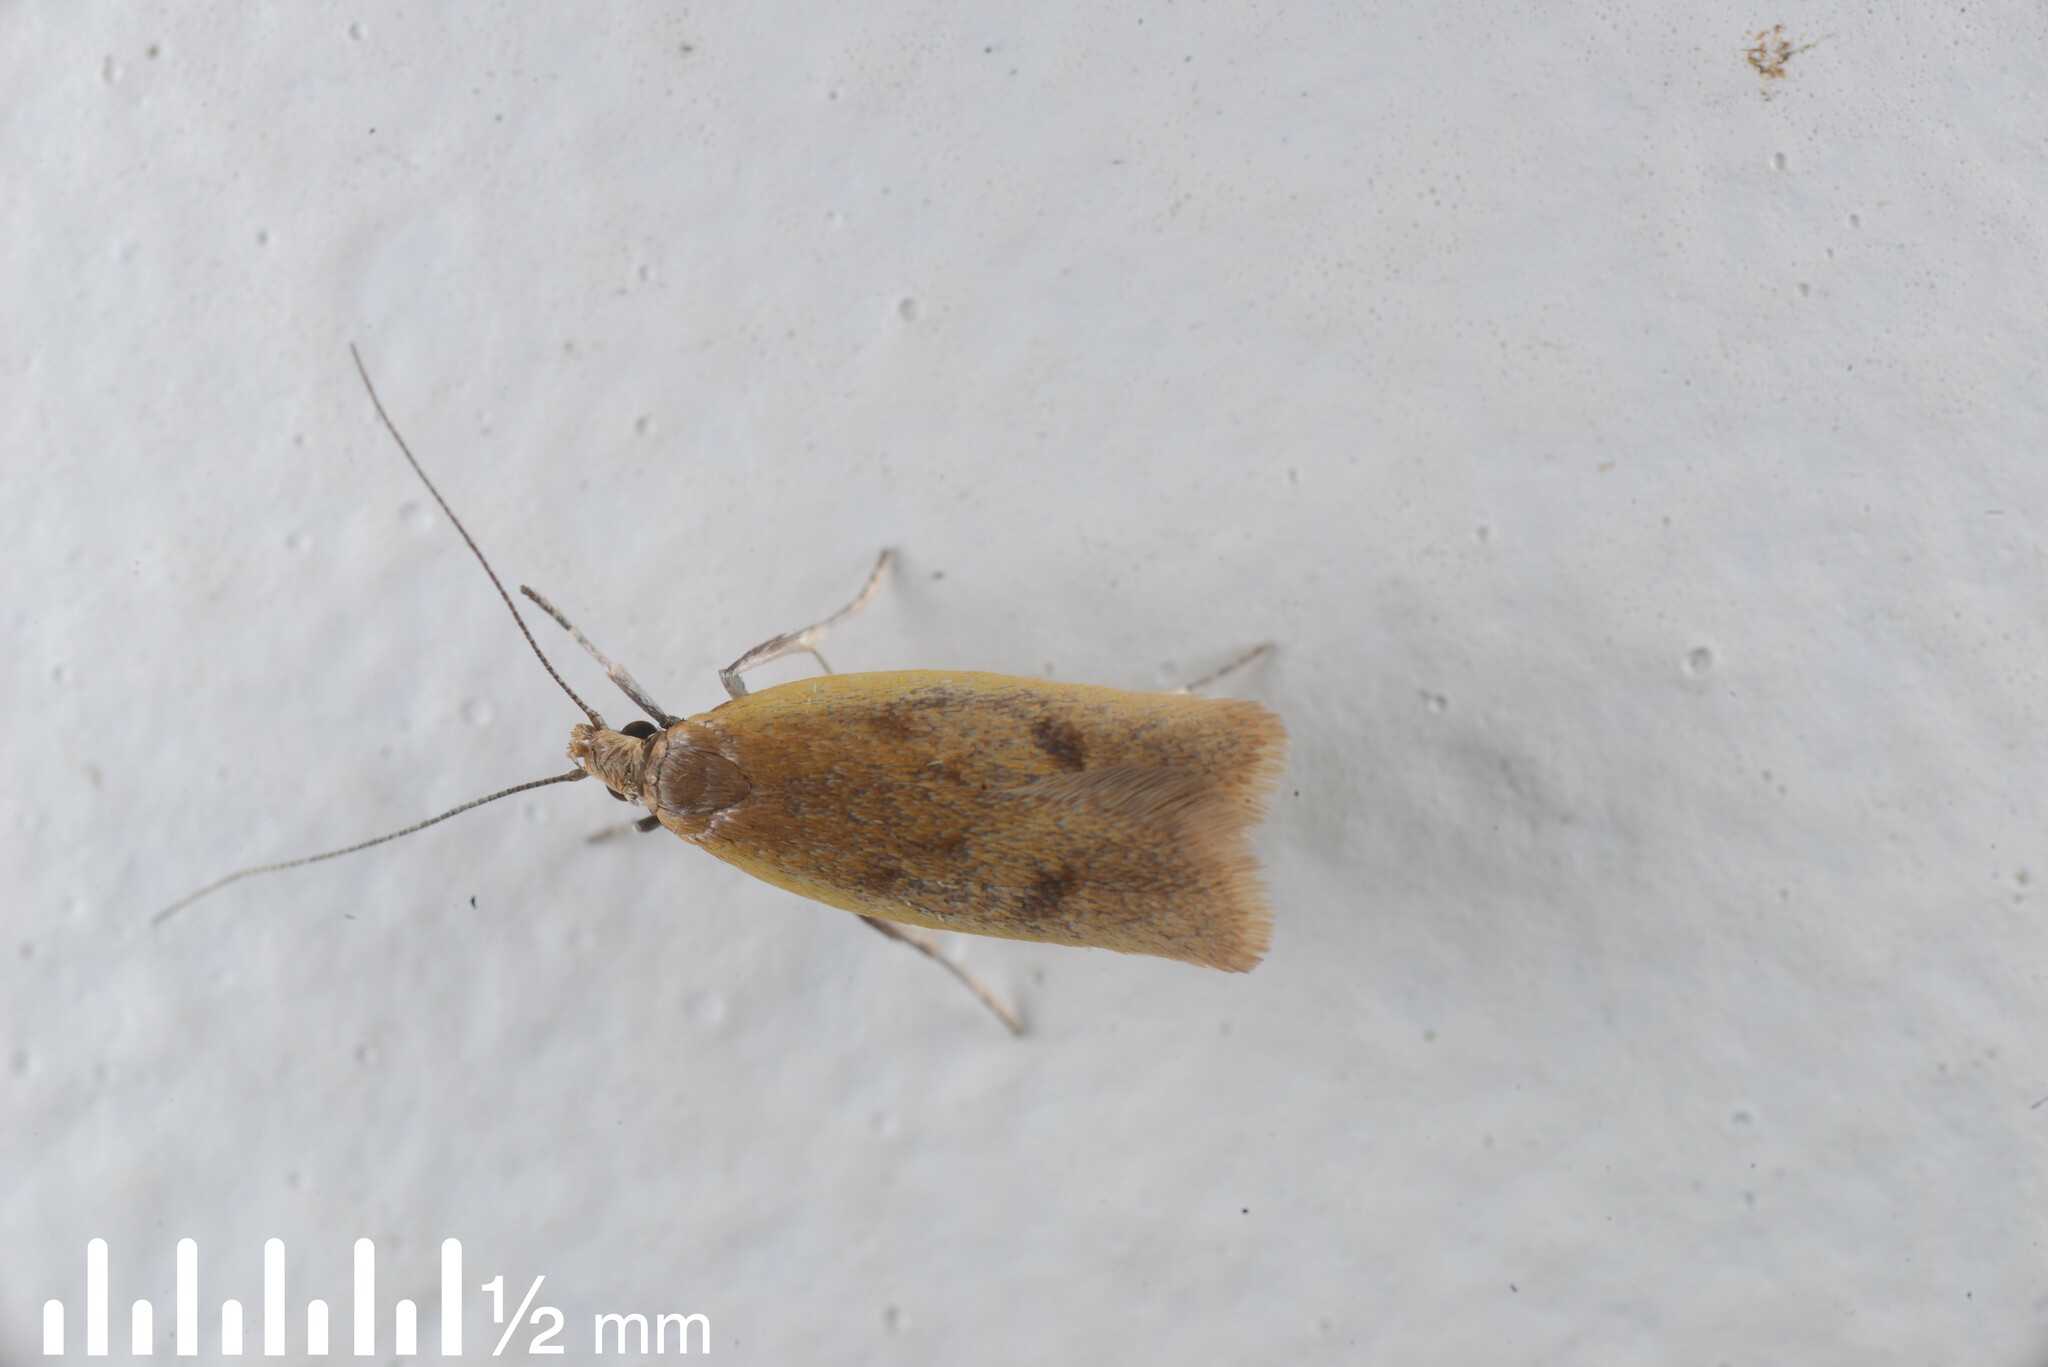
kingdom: Animalia
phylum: Arthropoda
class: Insecta
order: Lepidoptera
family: Oecophoridae
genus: Gymnobathra
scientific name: Gymnobathra parca
